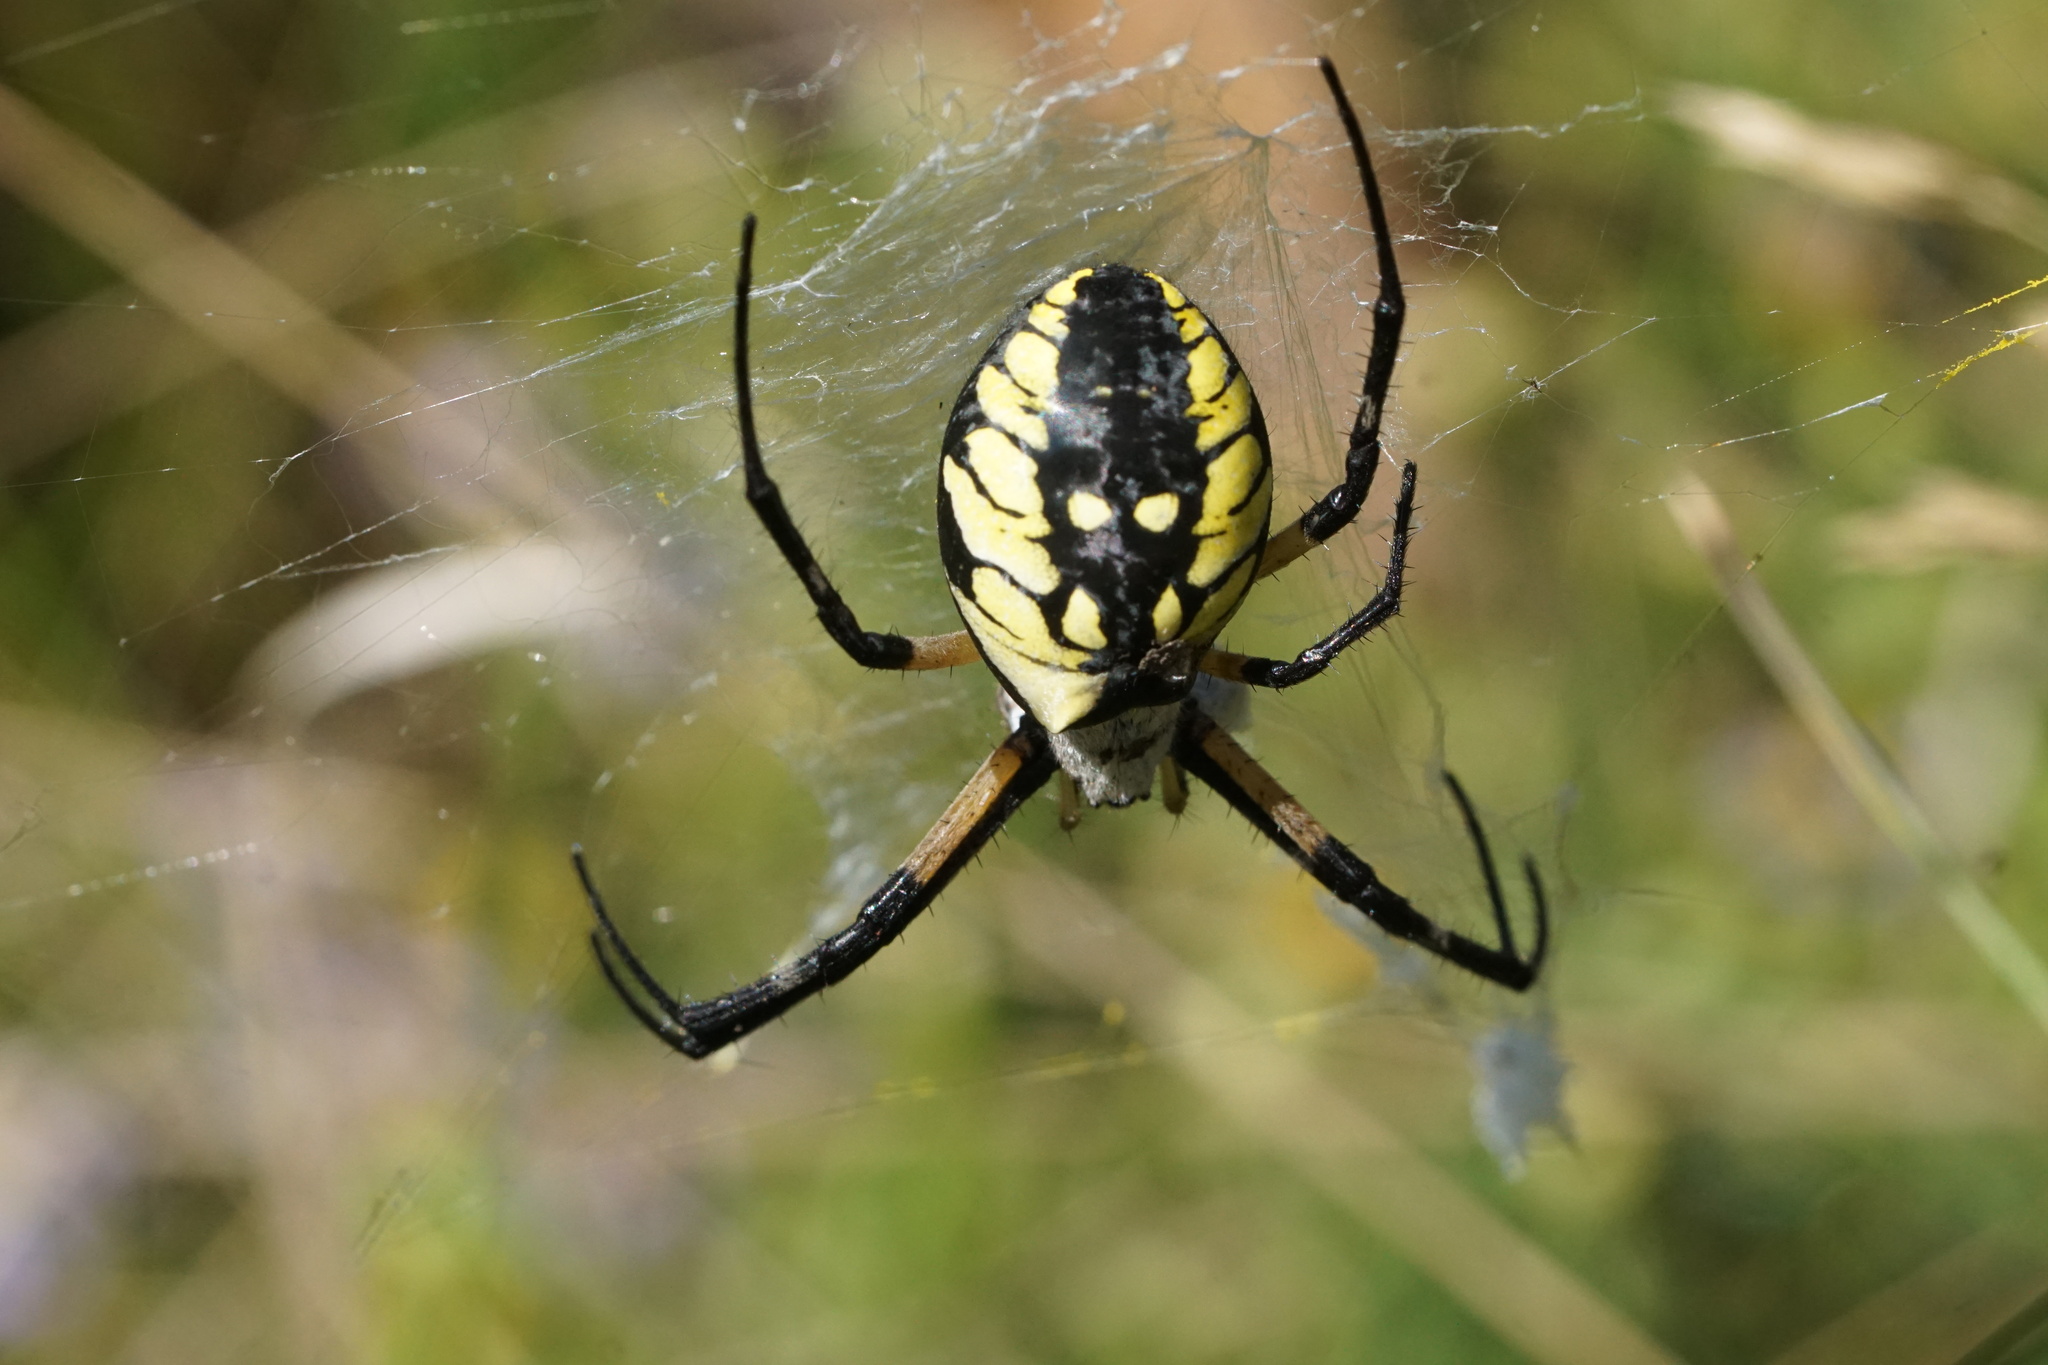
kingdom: Animalia
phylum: Arthropoda
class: Arachnida
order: Araneae
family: Araneidae
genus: Argiope
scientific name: Argiope aurantia
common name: Orb weavers
